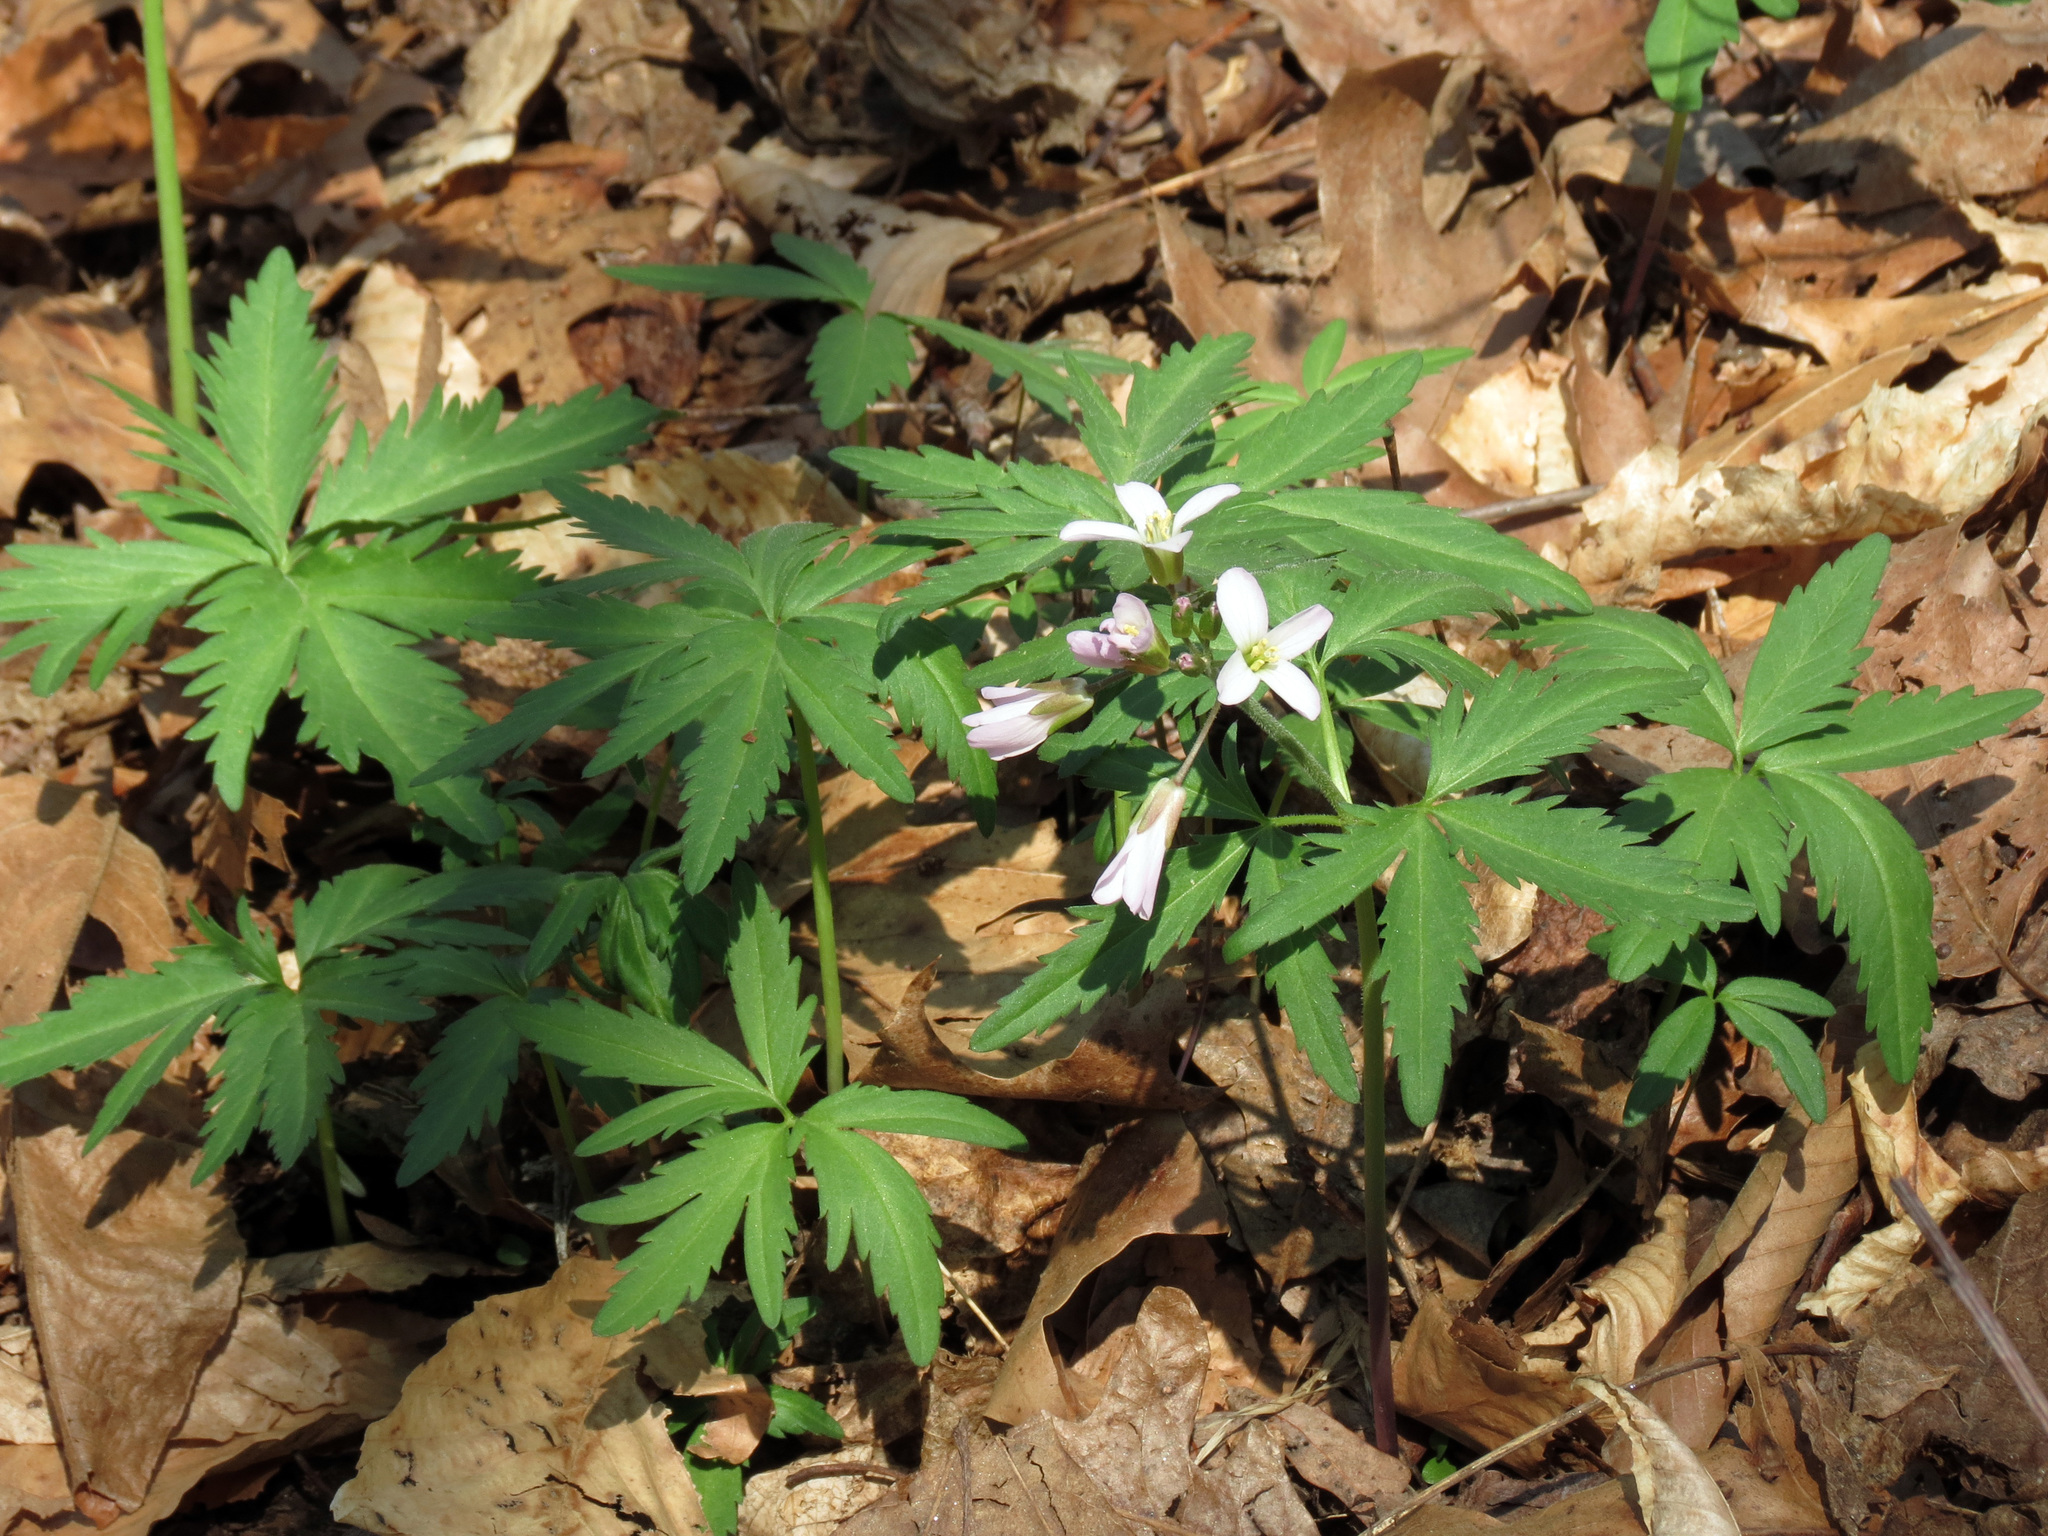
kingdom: Plantae
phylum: Tracheophyta
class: Magnoliopsida
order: Brassicales
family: Brassicaceae
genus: Cardamine
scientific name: Cardamine concatenata
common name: Cut-leaf toothcup
